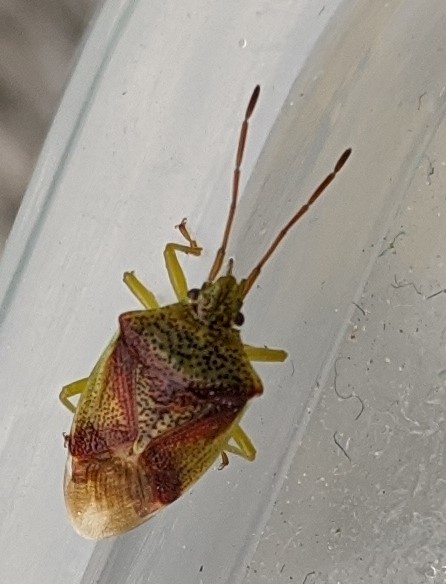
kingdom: Animalia
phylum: Arthropoda
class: Insecta
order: Hemiptera
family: Acanthosomatidae
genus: Elasmostethus
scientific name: Elasmostethus cruciatus
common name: Red-cross shield bug
